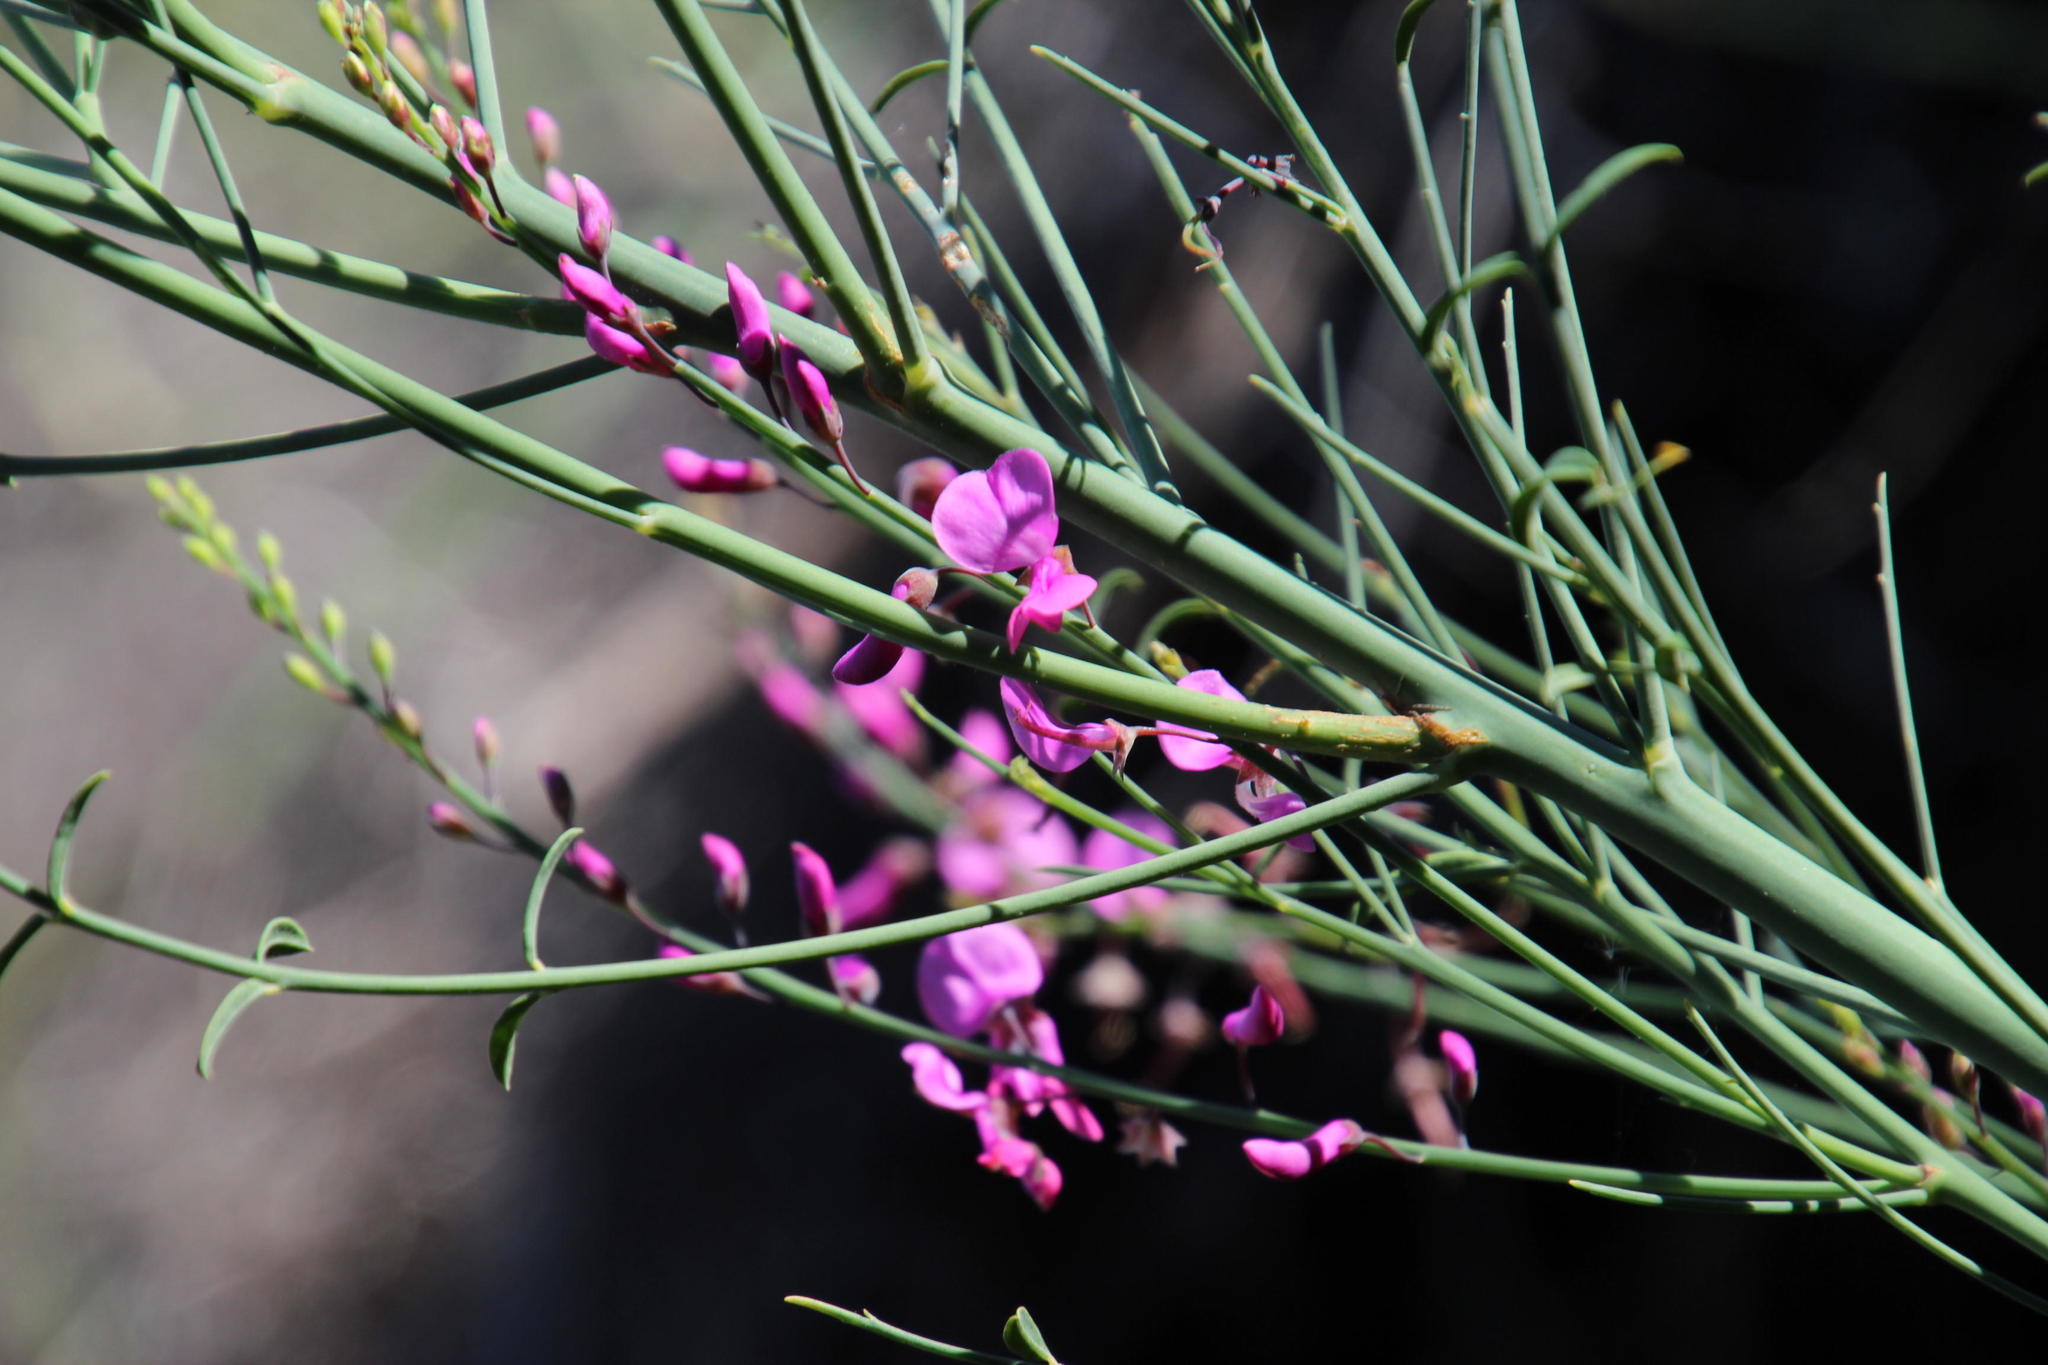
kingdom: Plantae
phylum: Tracheophyta
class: Magnoliopsida
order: Fabales
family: Fabaceae
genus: Indigofera
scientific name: Indigofera filifolia
